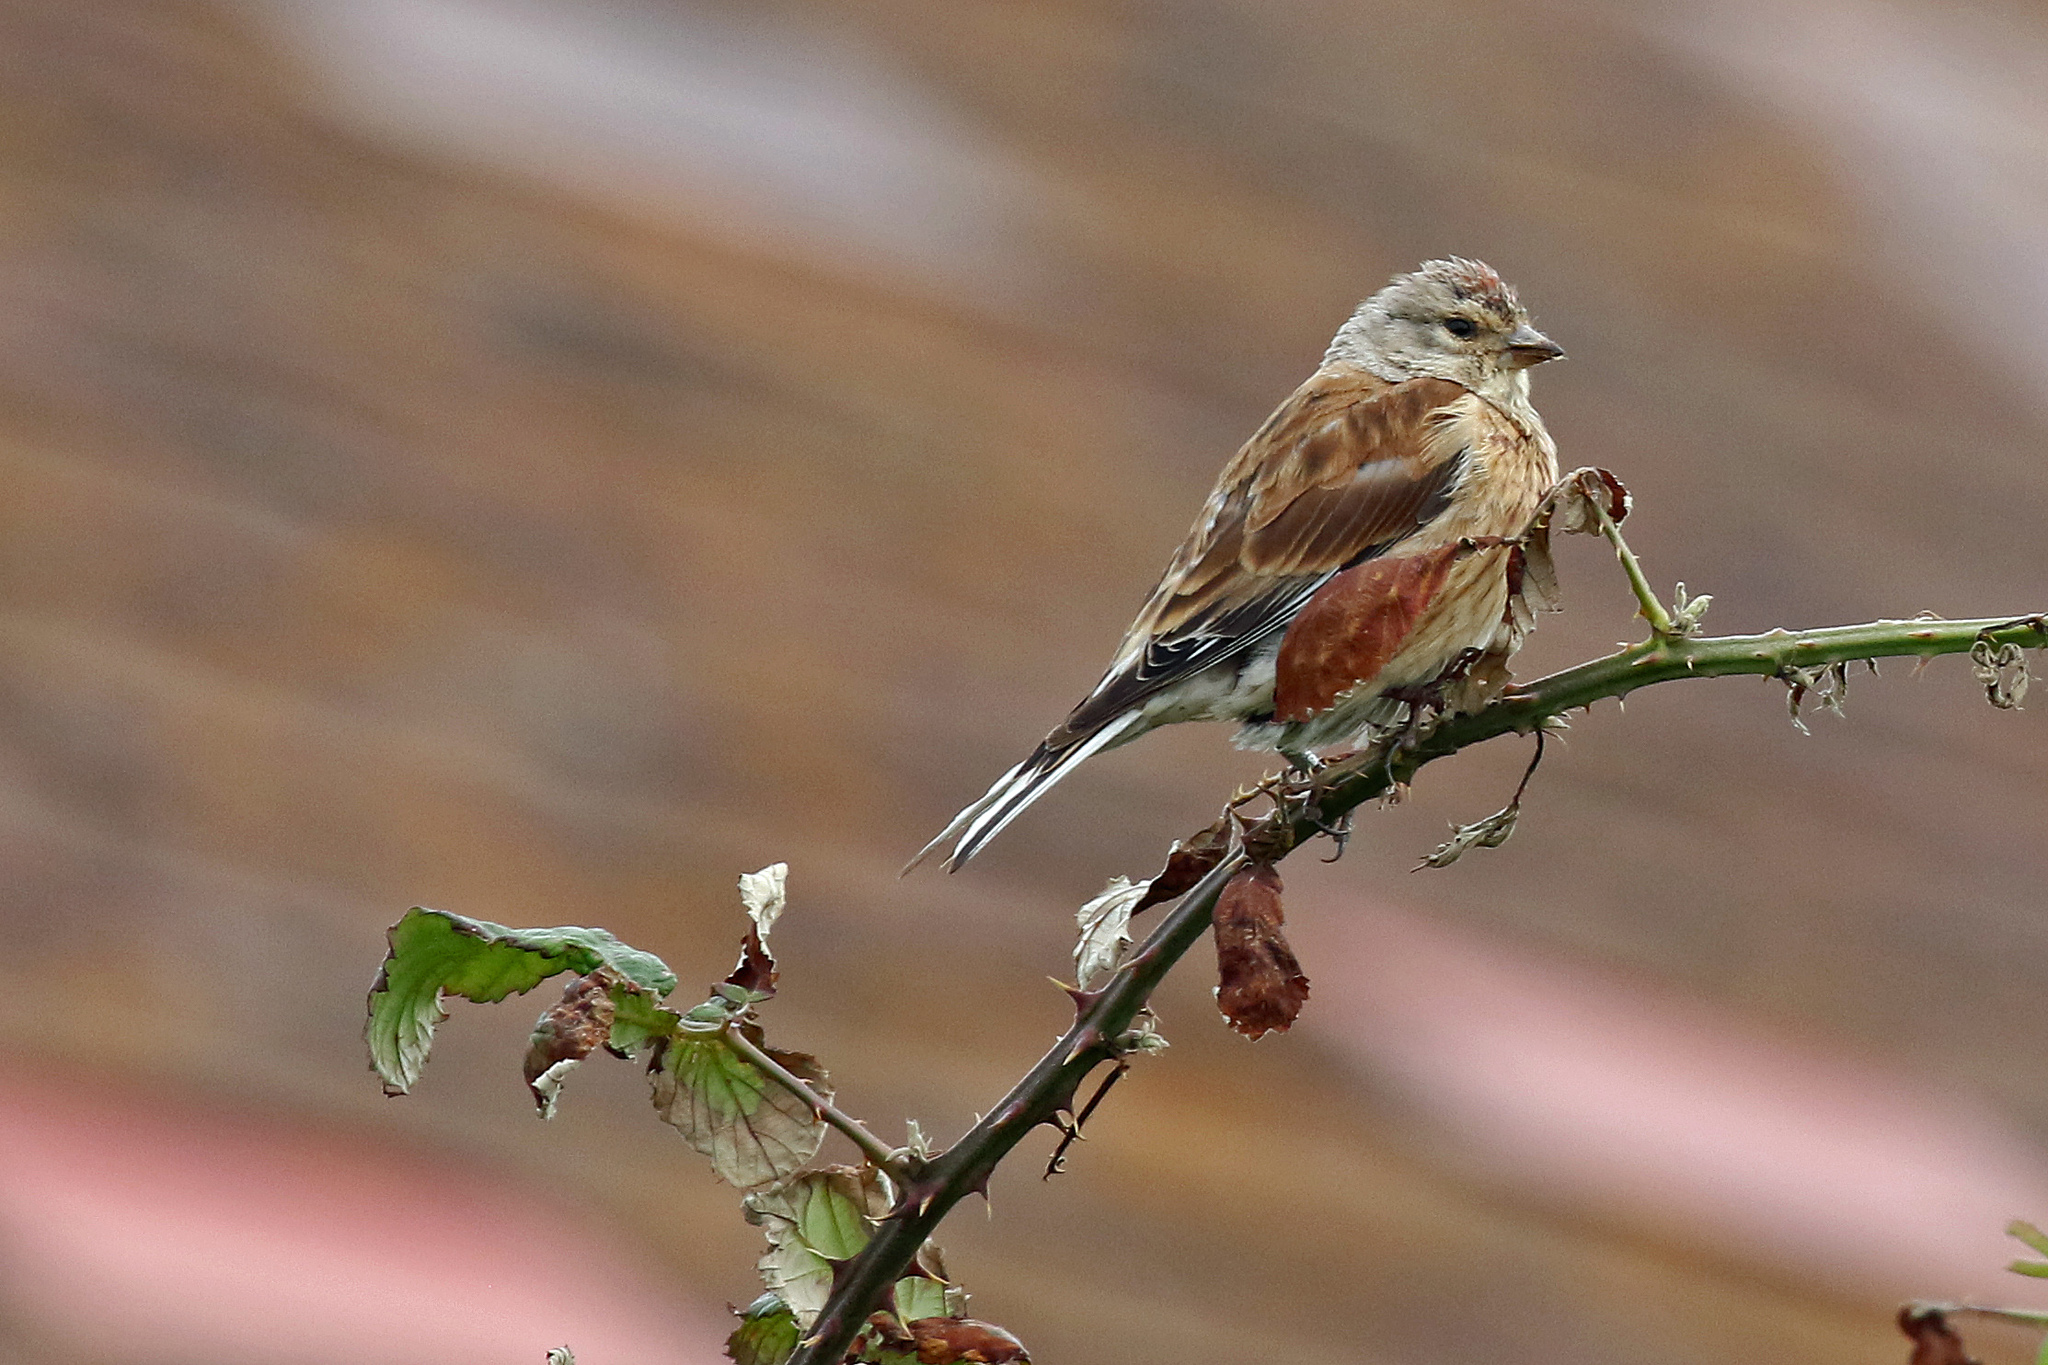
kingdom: Animalia
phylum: Chordata
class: Aves
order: Passeriformes
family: Fringillidae
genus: Linaria
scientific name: Linaria cannabina
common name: Common linnet
